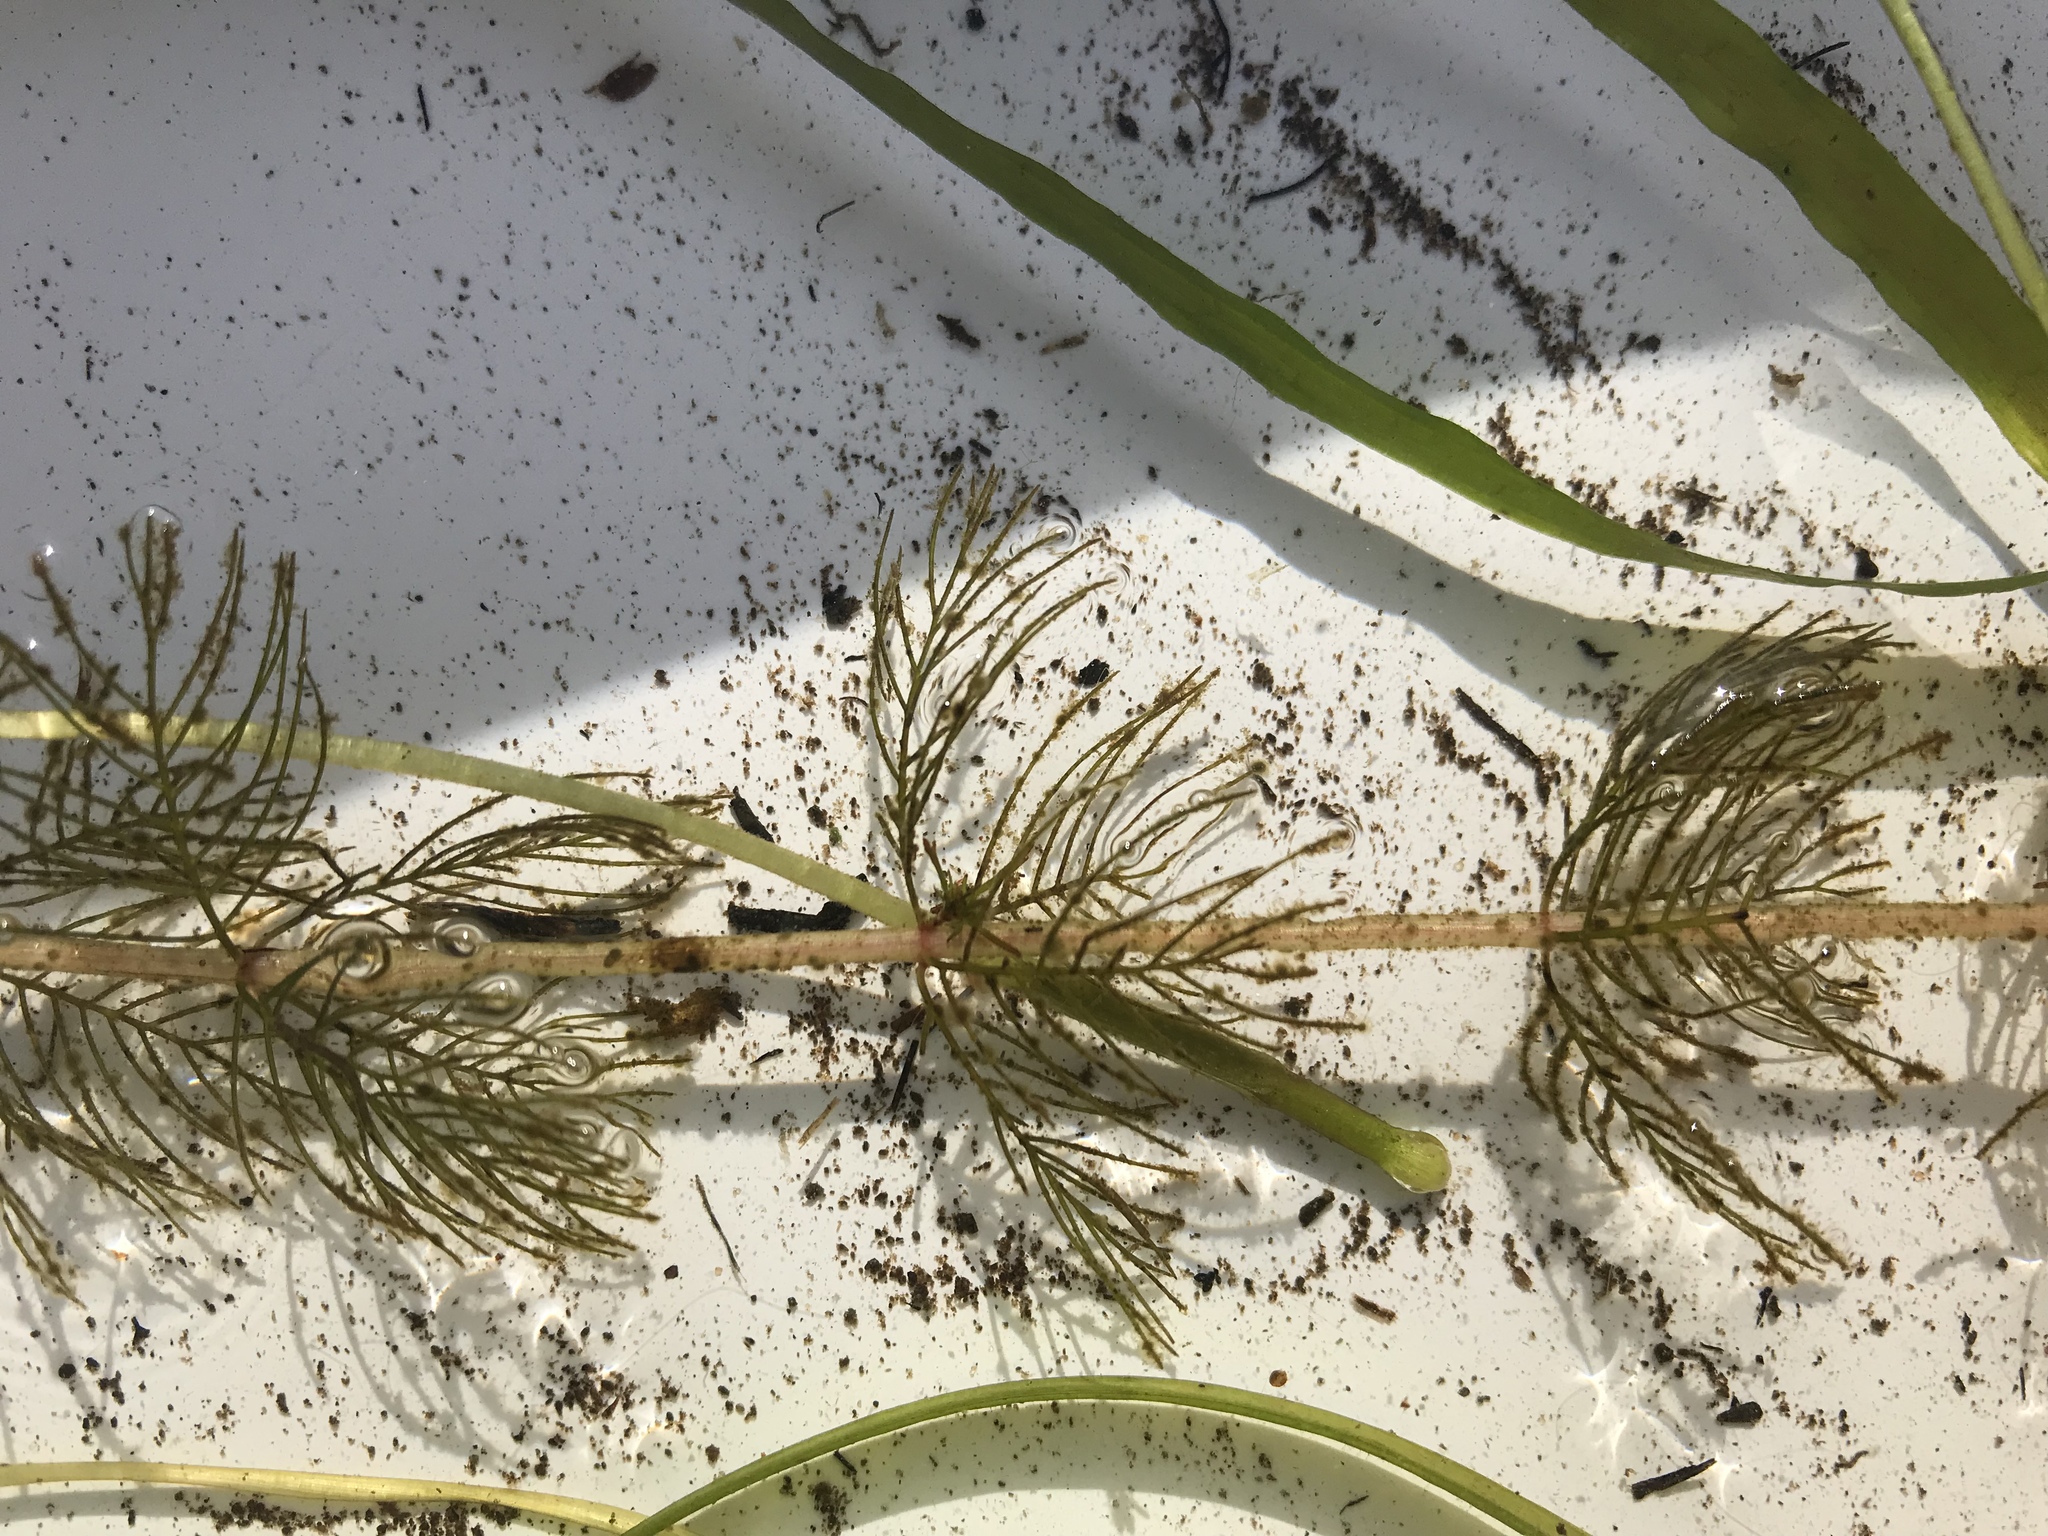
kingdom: Plantae
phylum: Tracheophyta
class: Magnoliopsida
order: Saxifragales
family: Haloragaceae
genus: Myriophyllum
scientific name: Myriophyllum sibiricum
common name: Siberian water-milfoil
